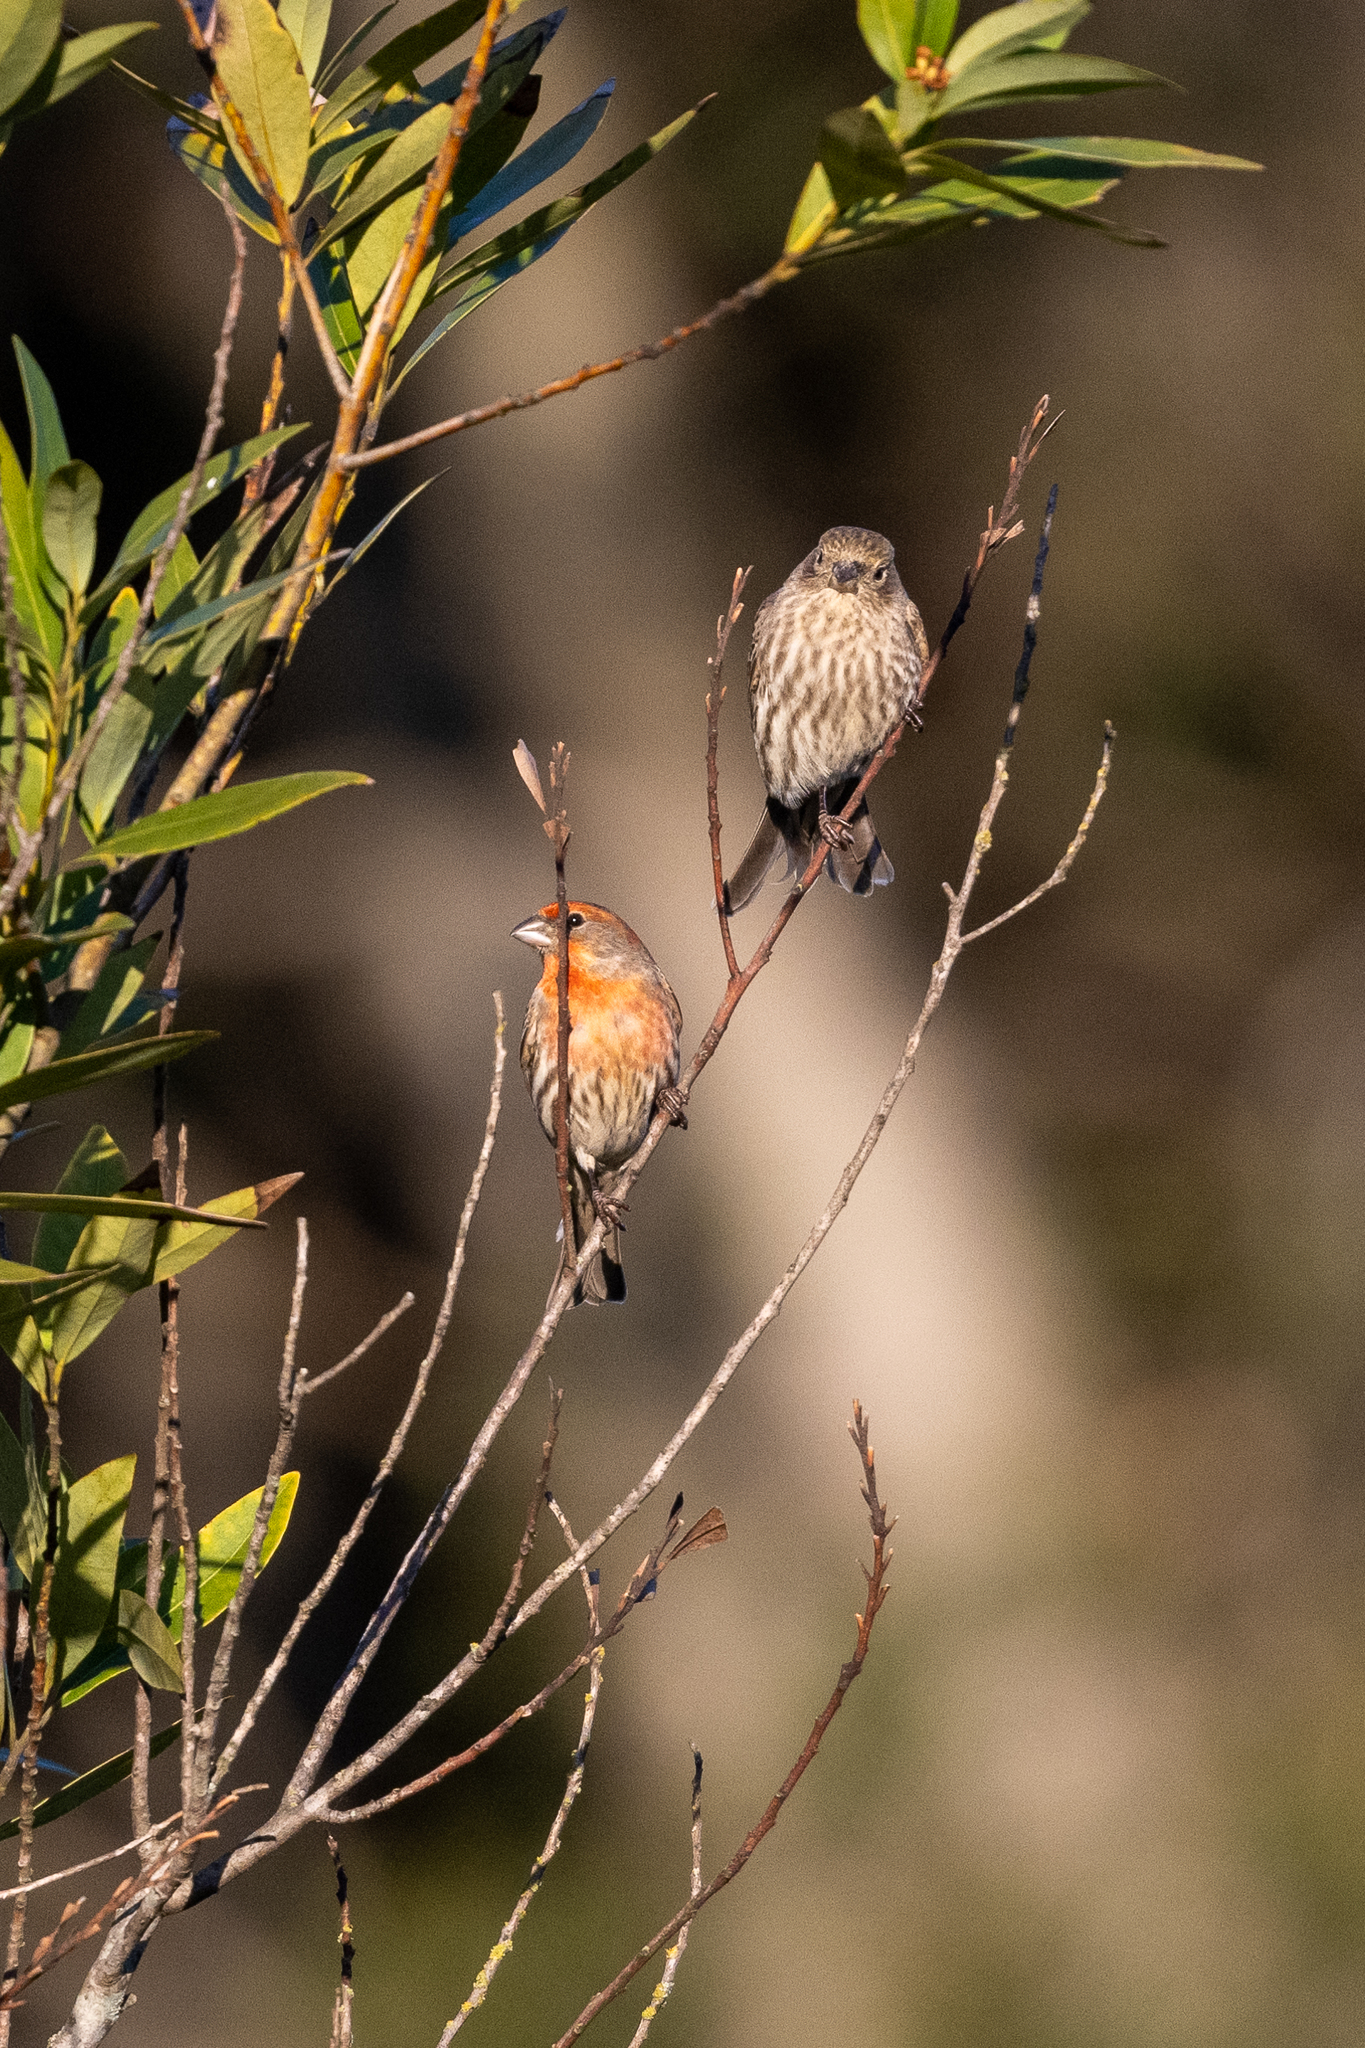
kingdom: Animalia
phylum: Chordata
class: Aves
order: Passeriformes
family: Fringillidae
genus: Haemorhous
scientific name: Haemorhous mexicanus
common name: House finch
